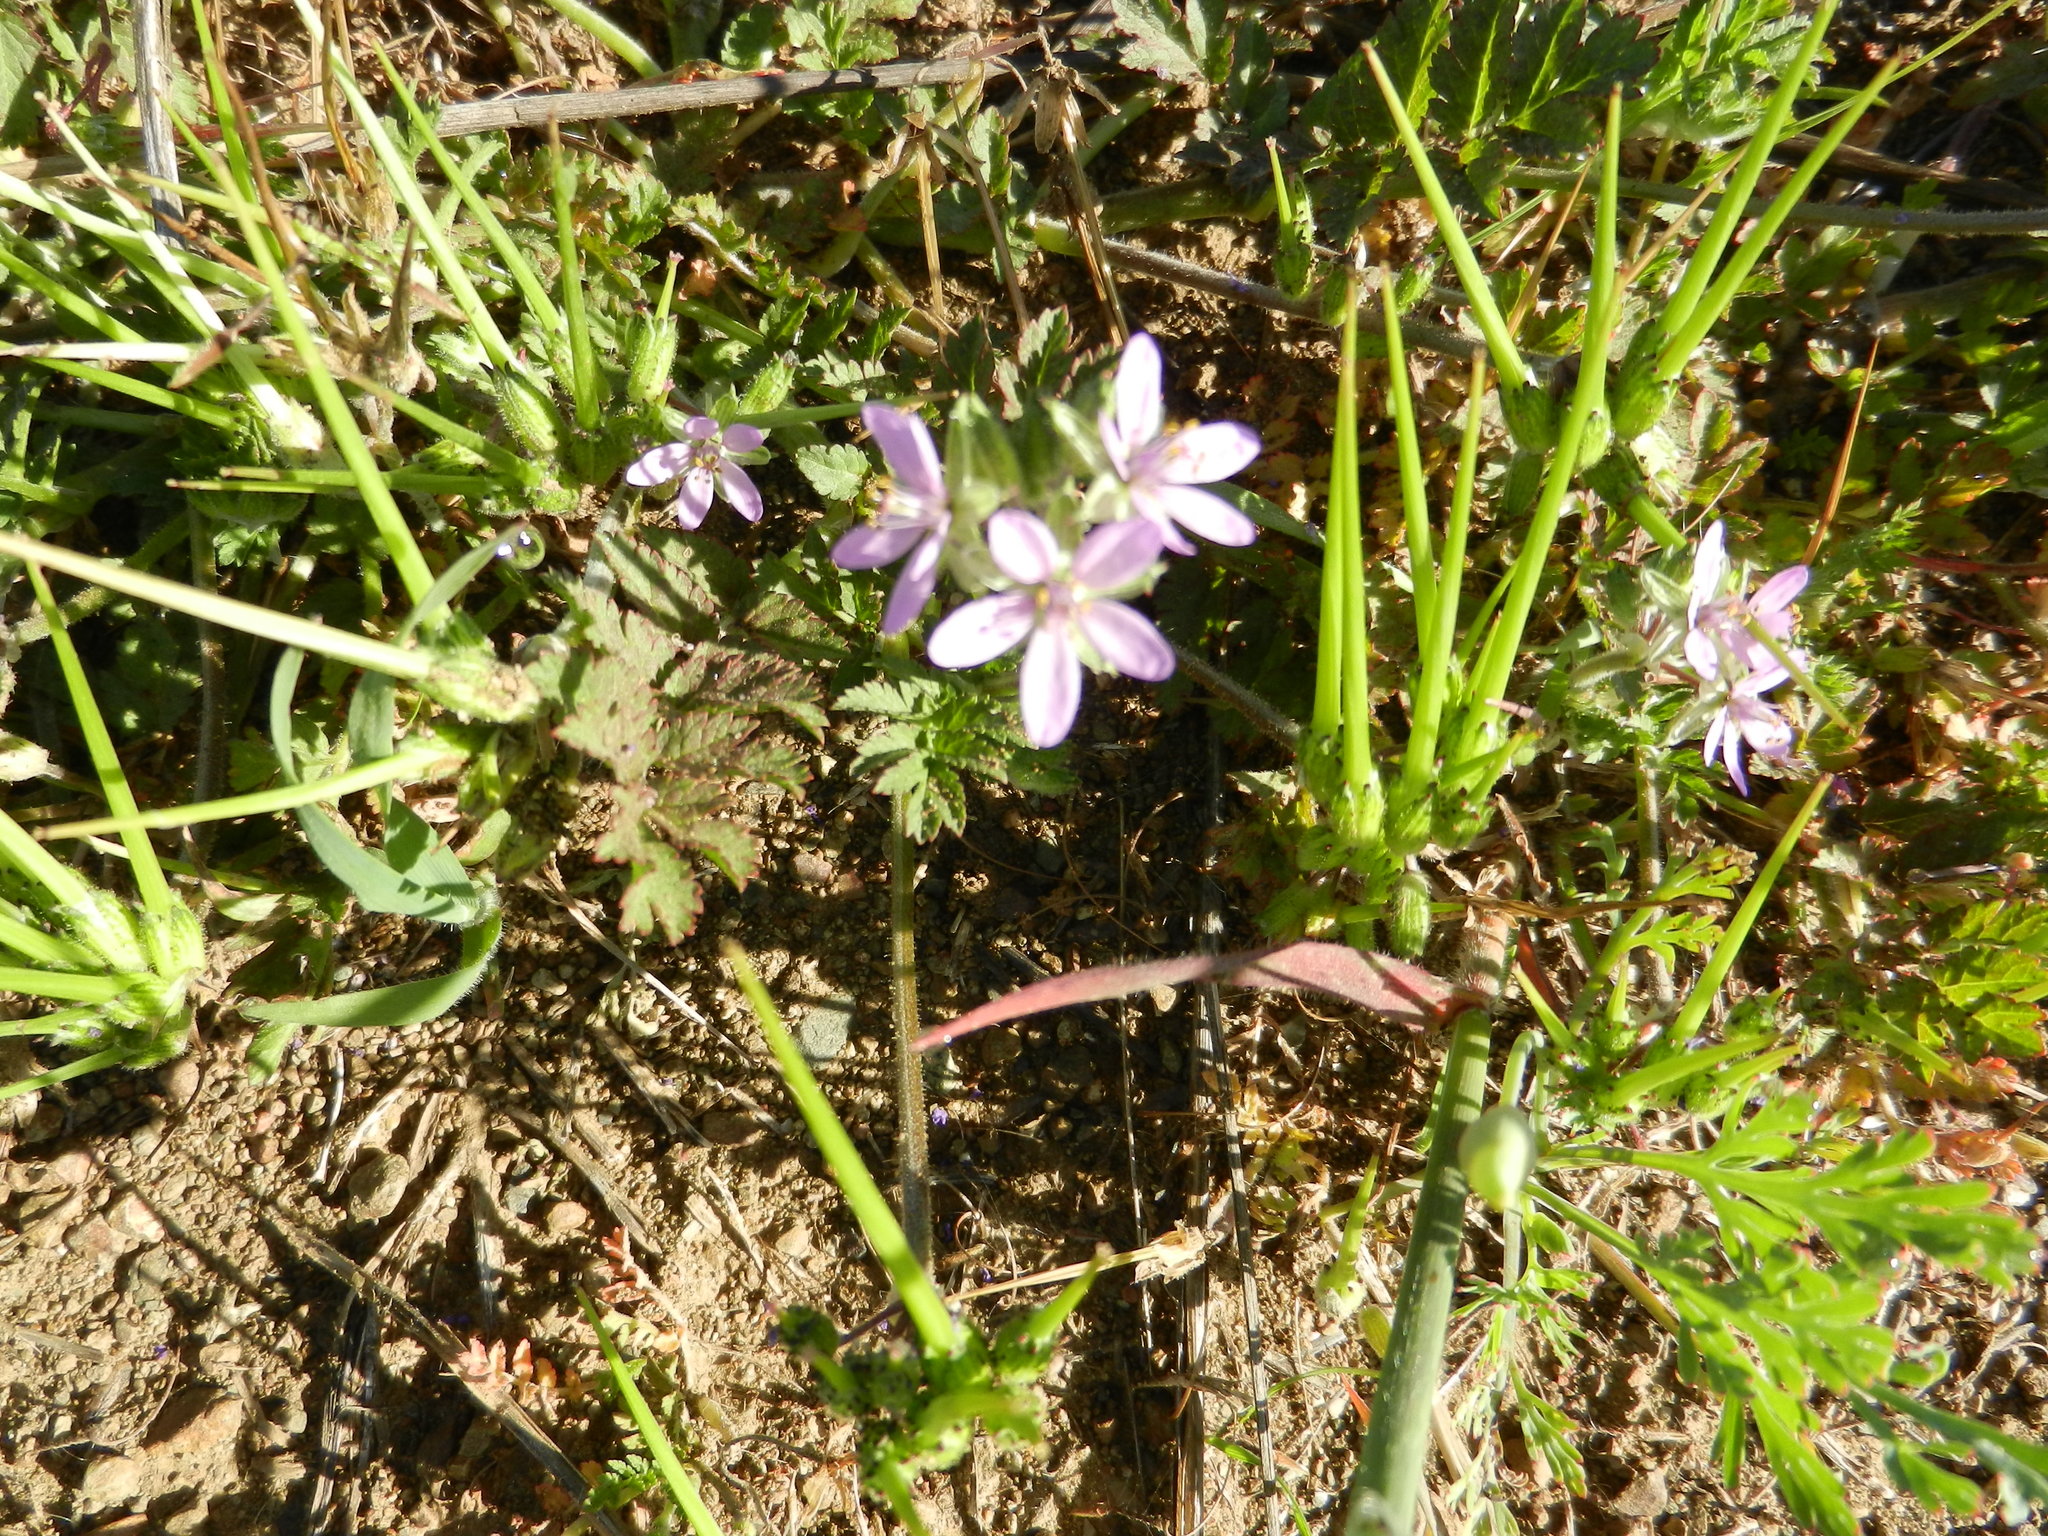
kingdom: Plantae
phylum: Tracheophyta
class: Magnoliopsida
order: Geraniales
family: Geraniaceae
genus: Erodium
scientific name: Erodium moschatum
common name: Musk stork's-bill
